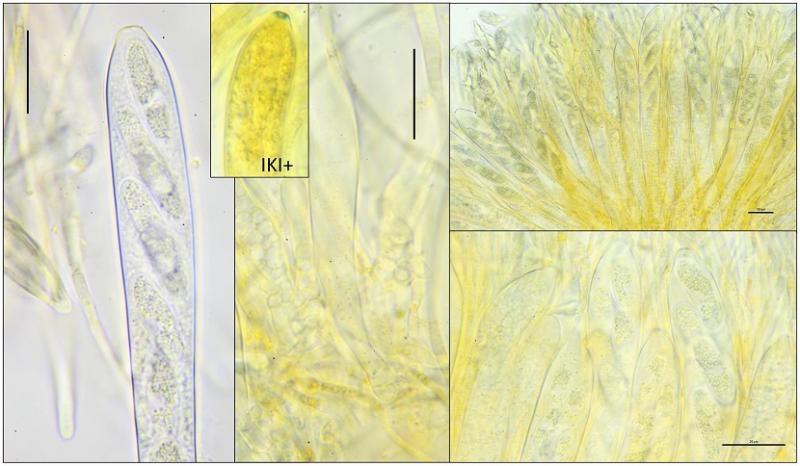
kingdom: Fungi
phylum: Ascomycota
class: Leotiomycetes
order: Helotiales
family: Helotiaceae
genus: Stamnaria
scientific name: Stamnaria
